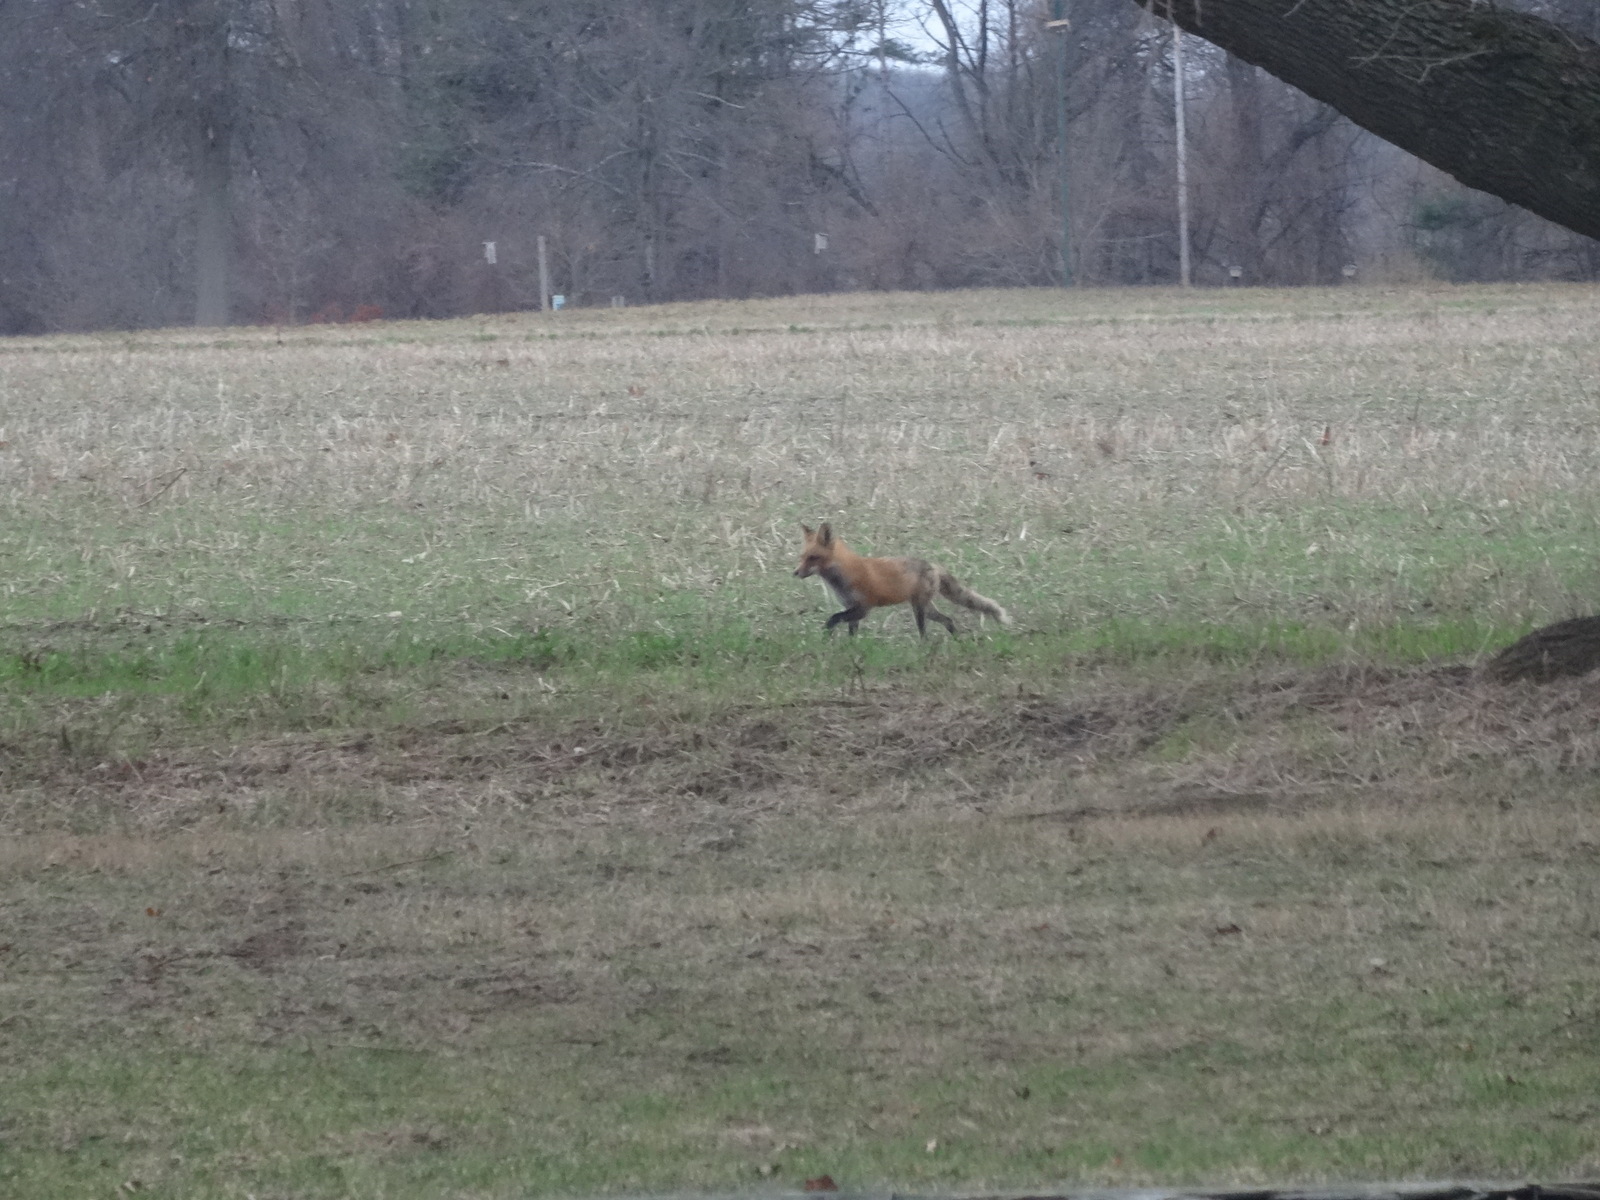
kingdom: Animalia
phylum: Chordata
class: Mammalia
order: Carnivora
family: Canidae
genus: Vulpes
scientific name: Vulpes vulpes
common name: Red fox
